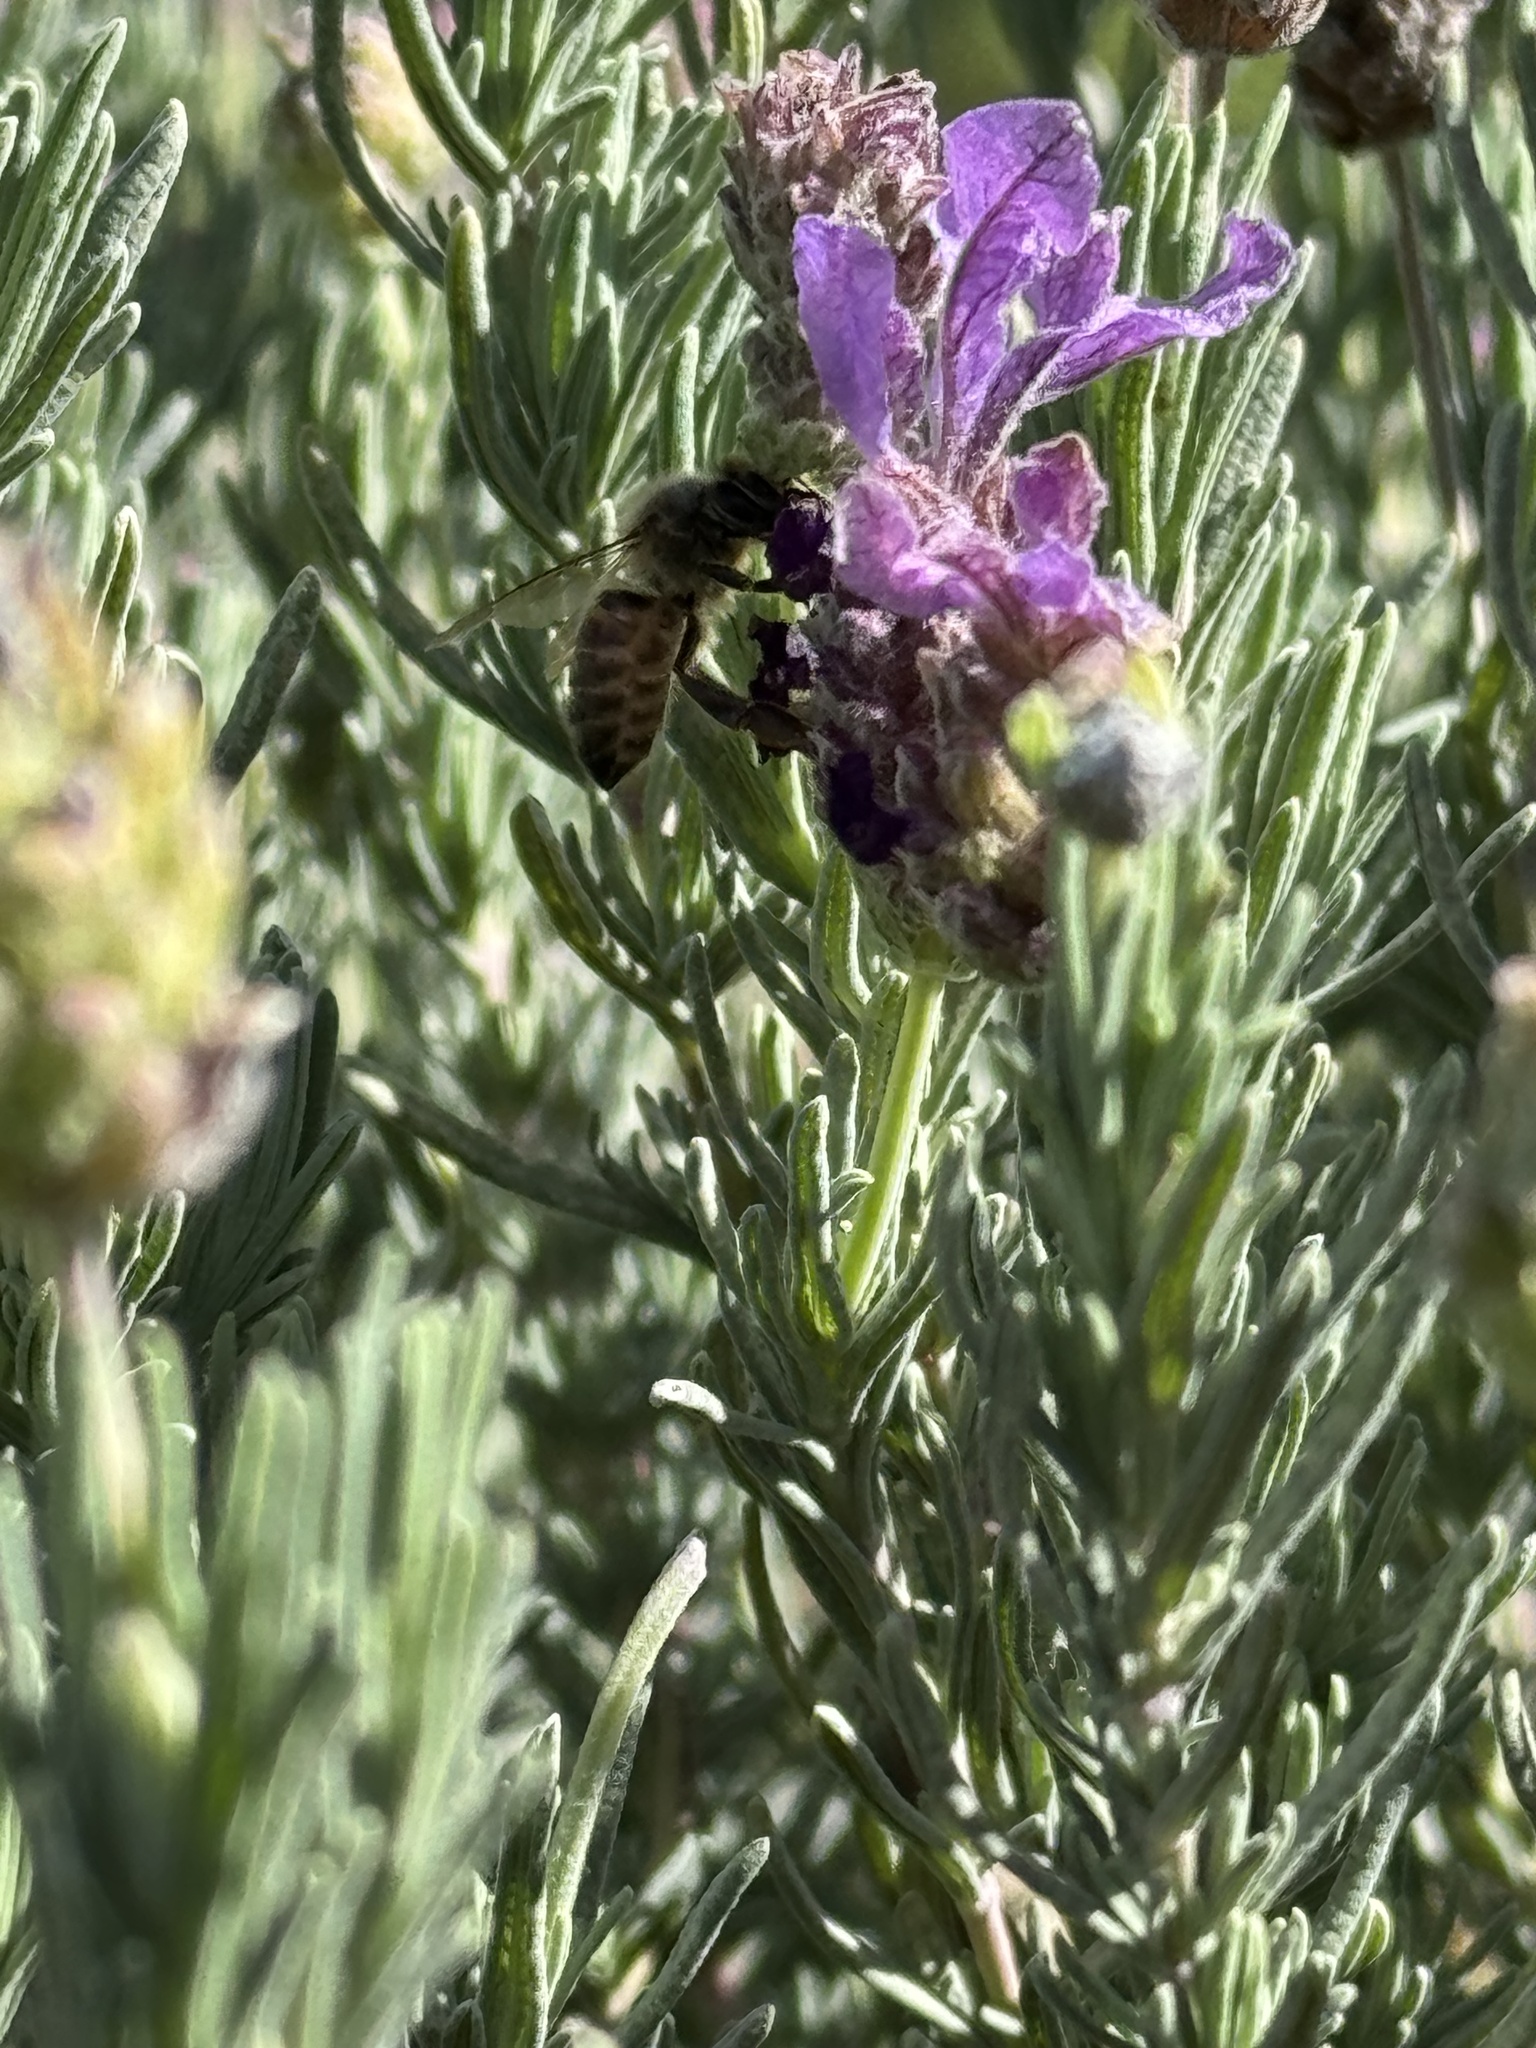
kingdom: Animalia
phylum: Arthropoda
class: Insecta
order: Hymenoptera
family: Apidae
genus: Apis
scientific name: Apis mellifera
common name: Honey bee
